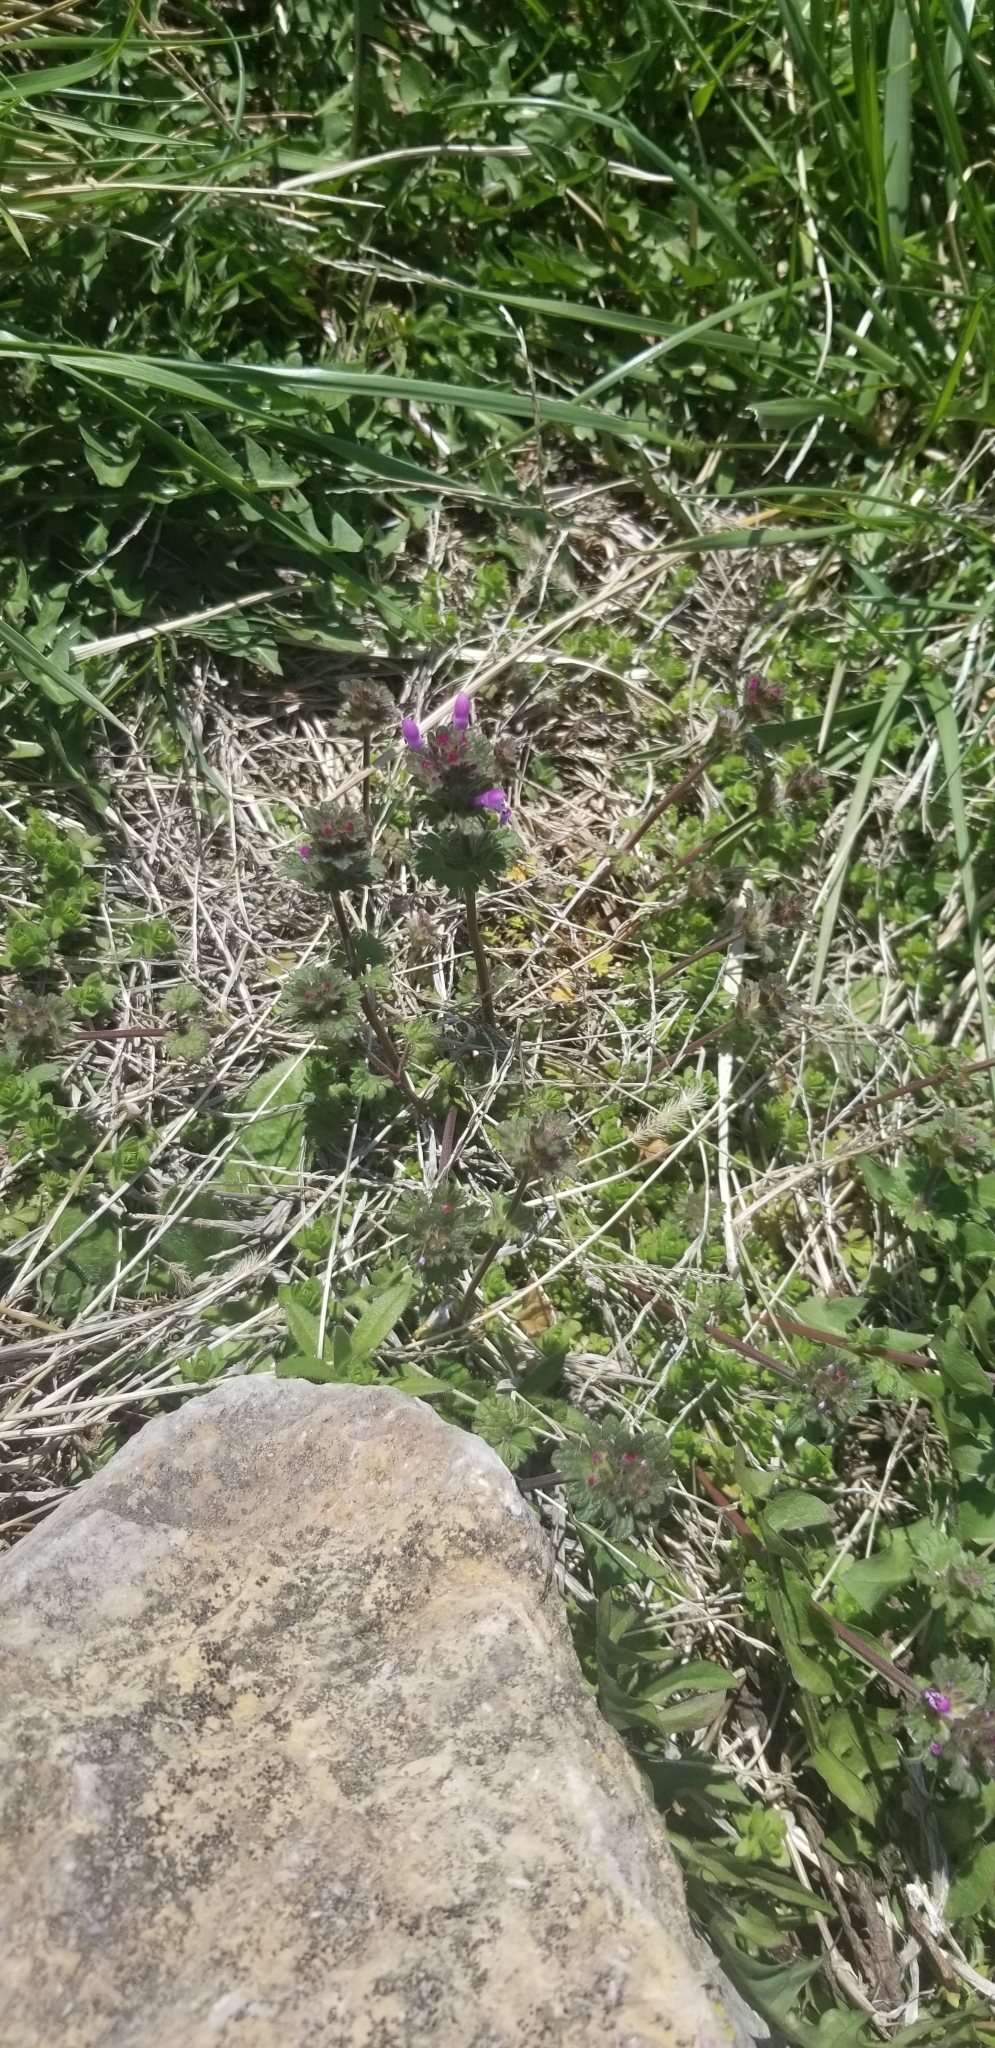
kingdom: Plantae
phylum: Tracheophyta
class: Magnoliopsida
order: Lamiales
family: Lamiaceae
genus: Lamium
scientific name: Lamium amplexicaule
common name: Henbit dead-nettle
